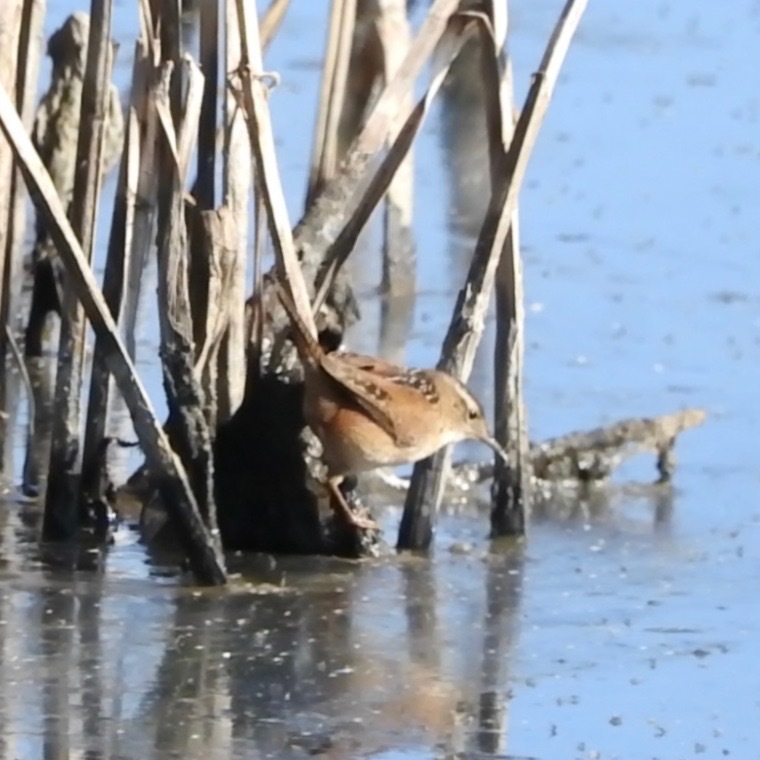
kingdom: Animalia
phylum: Chordata
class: Aves
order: Passeriformes
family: Troglodytidae
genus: Cistothorus
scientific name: Cistothorus palustris
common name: Marsh wren
